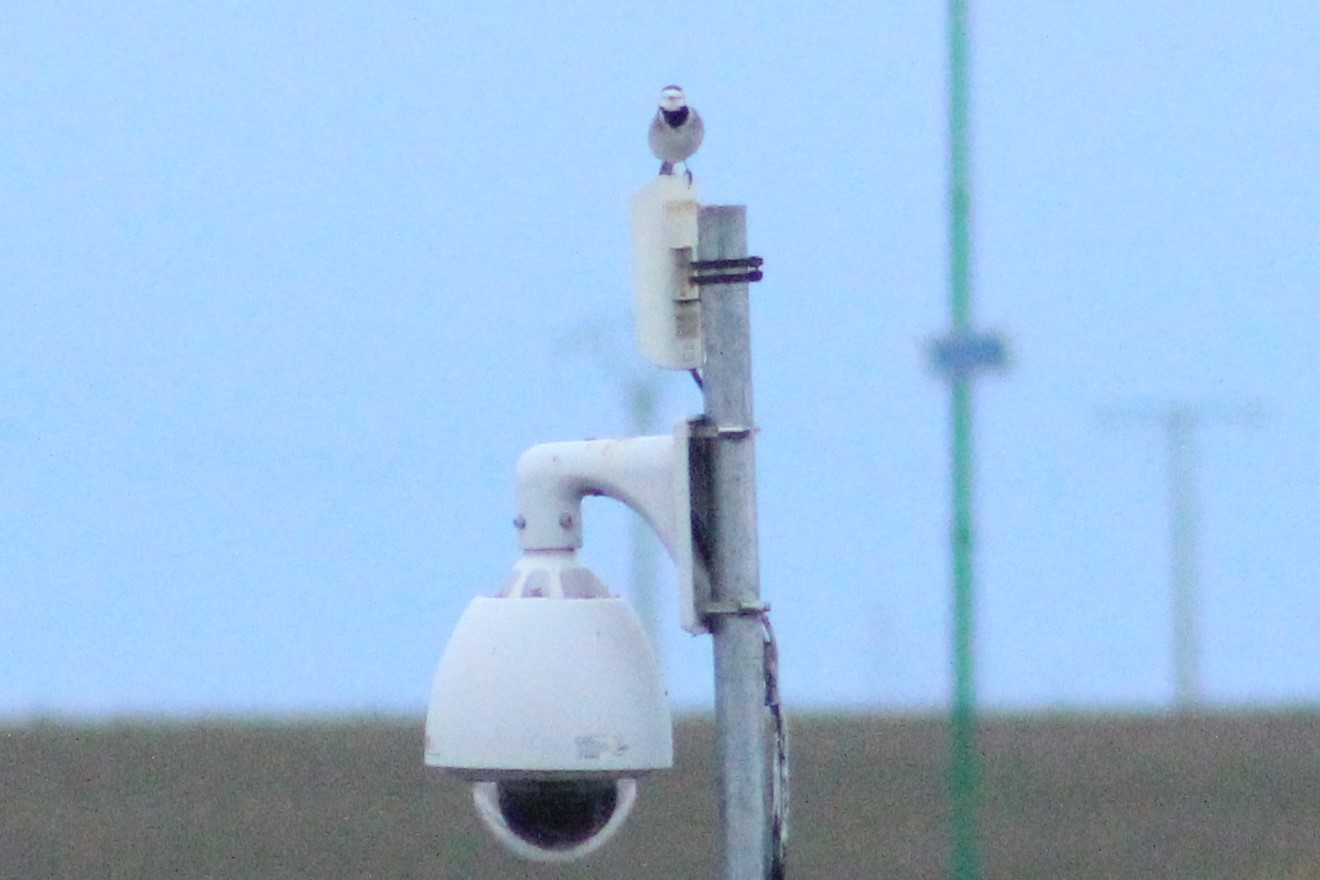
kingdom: Animalia
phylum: Chordata
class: Aves
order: Passeriformes
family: Motacillidae
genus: Motacilla
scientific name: Motacilla alba
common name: White wagtail
